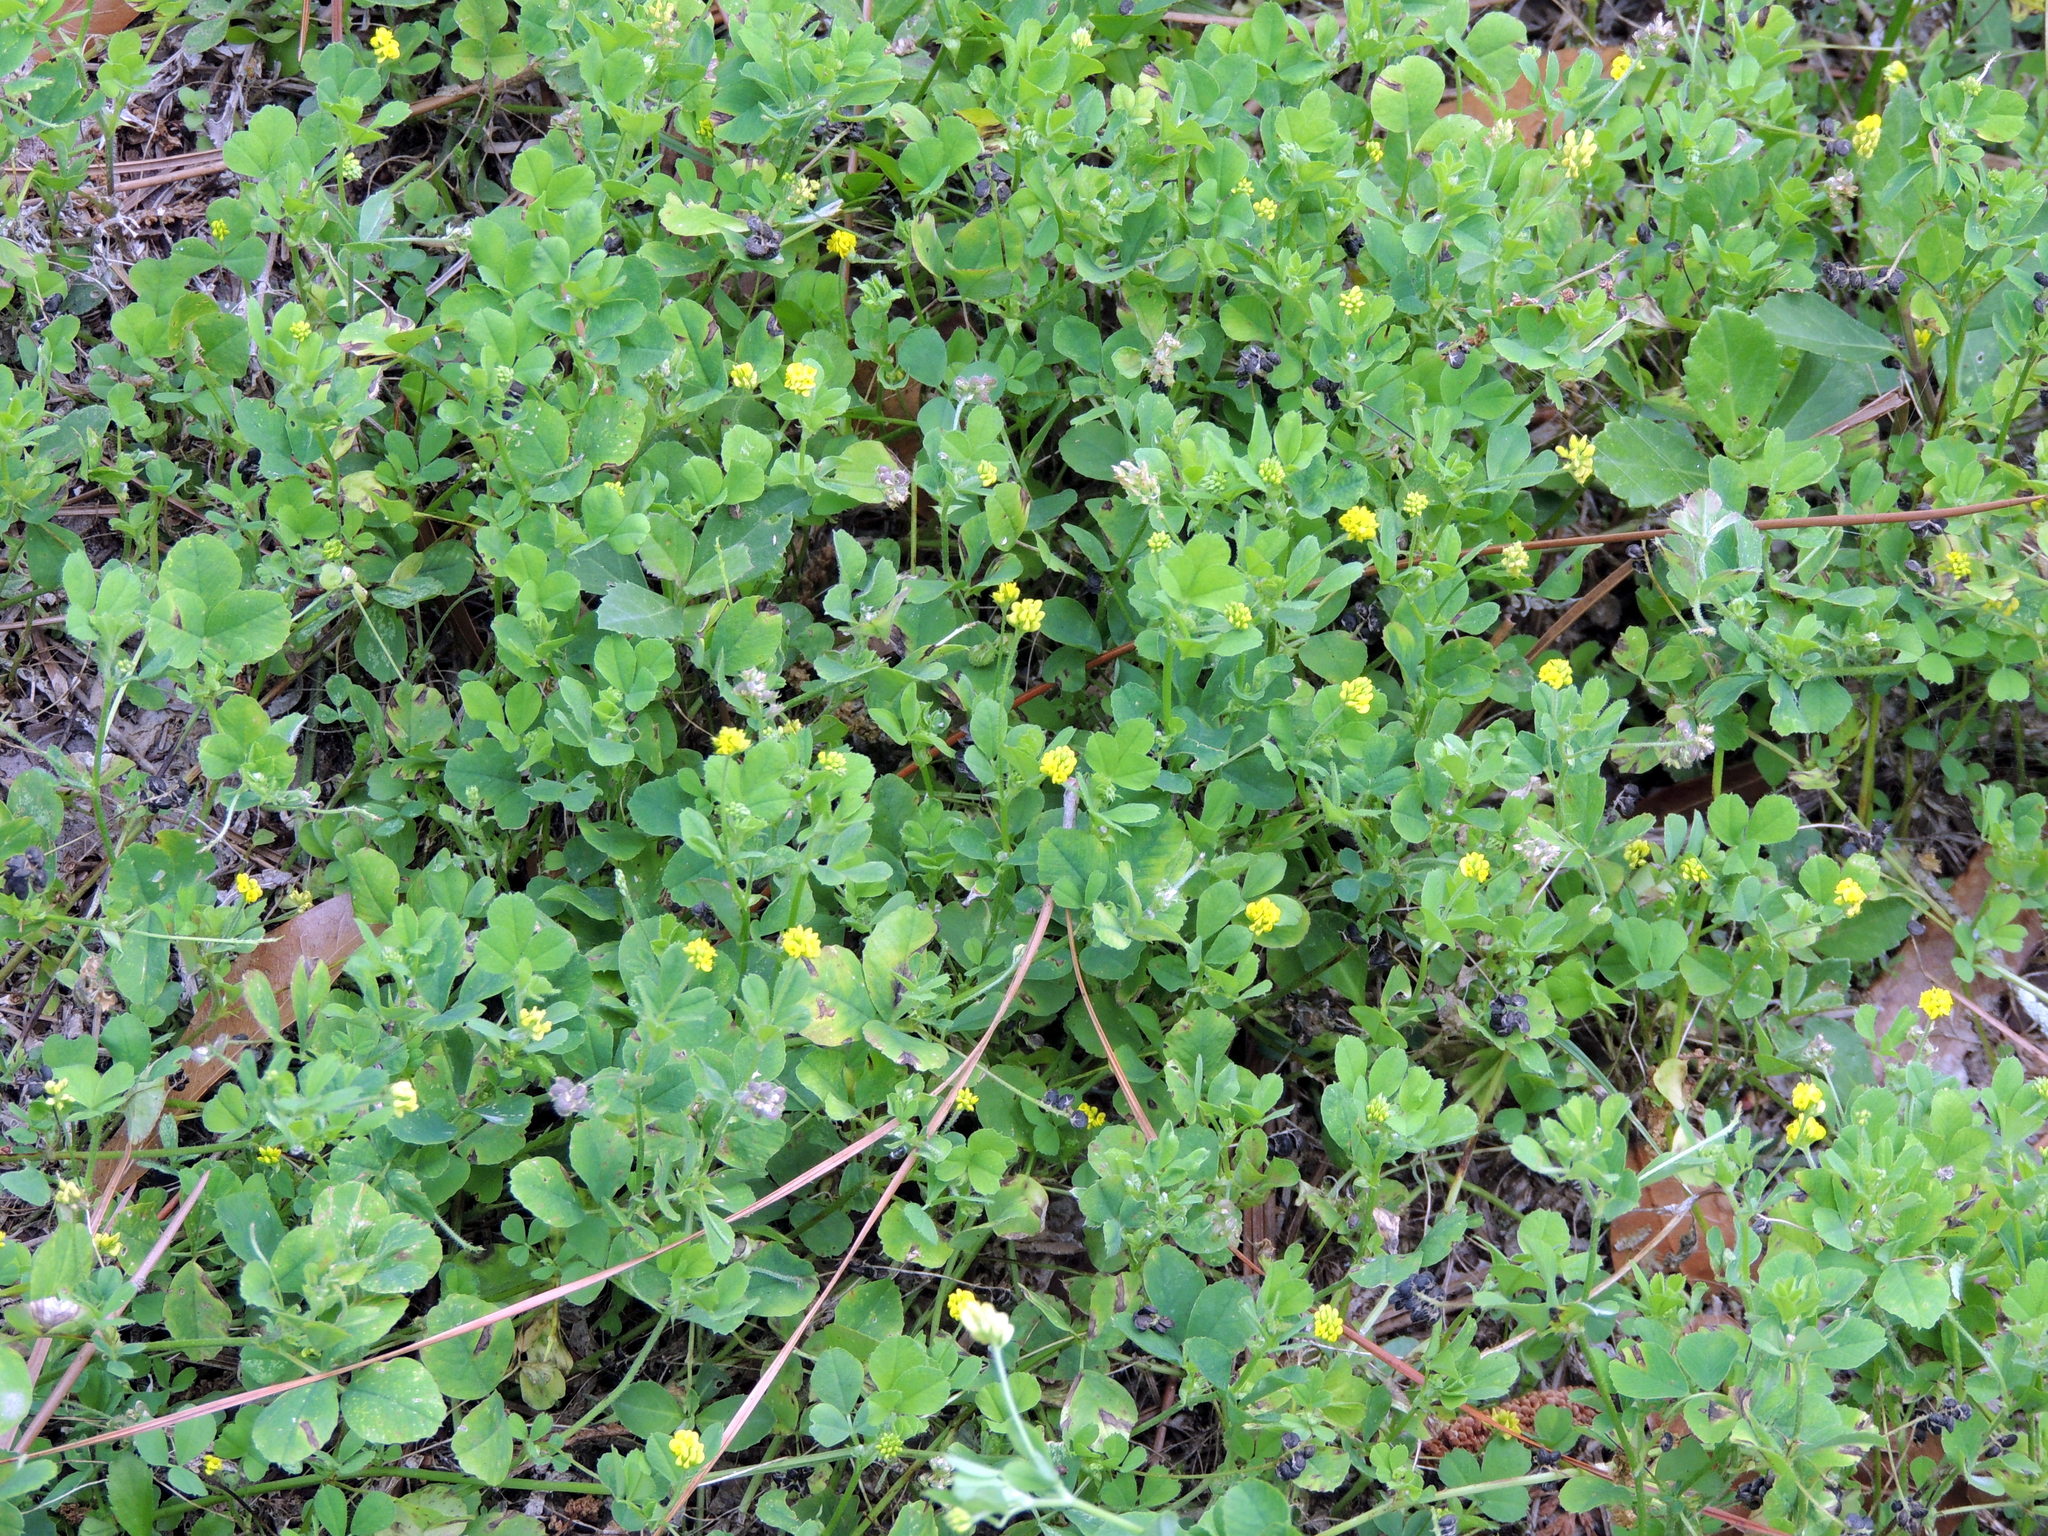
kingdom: Plantae
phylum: Tracheophyta
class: Magnoliopsida
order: Fabales
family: Fabaceae
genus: Medicago
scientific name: Medicago lupulina
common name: Black medick
